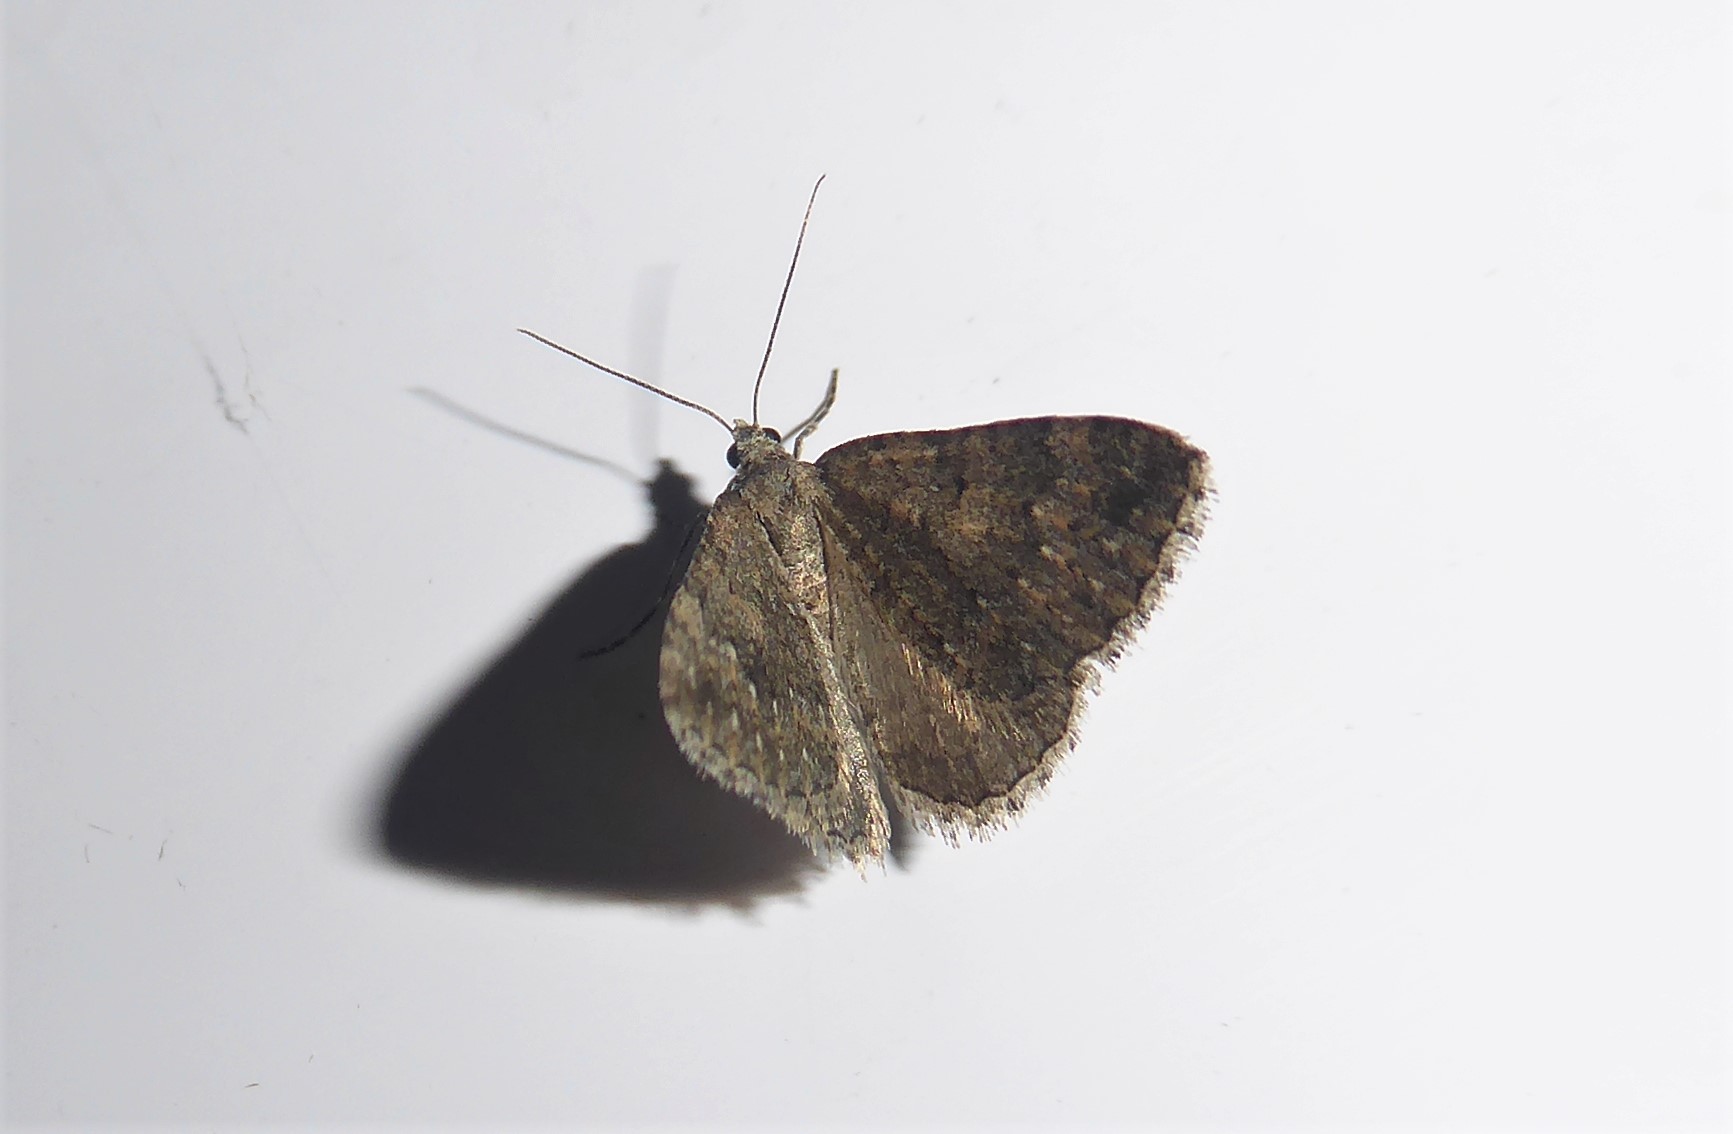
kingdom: Animalia
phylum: Arthropoda
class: Insecta
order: Lepidoptera
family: Geometridae
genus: Helastia
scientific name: Helastia corcularia
